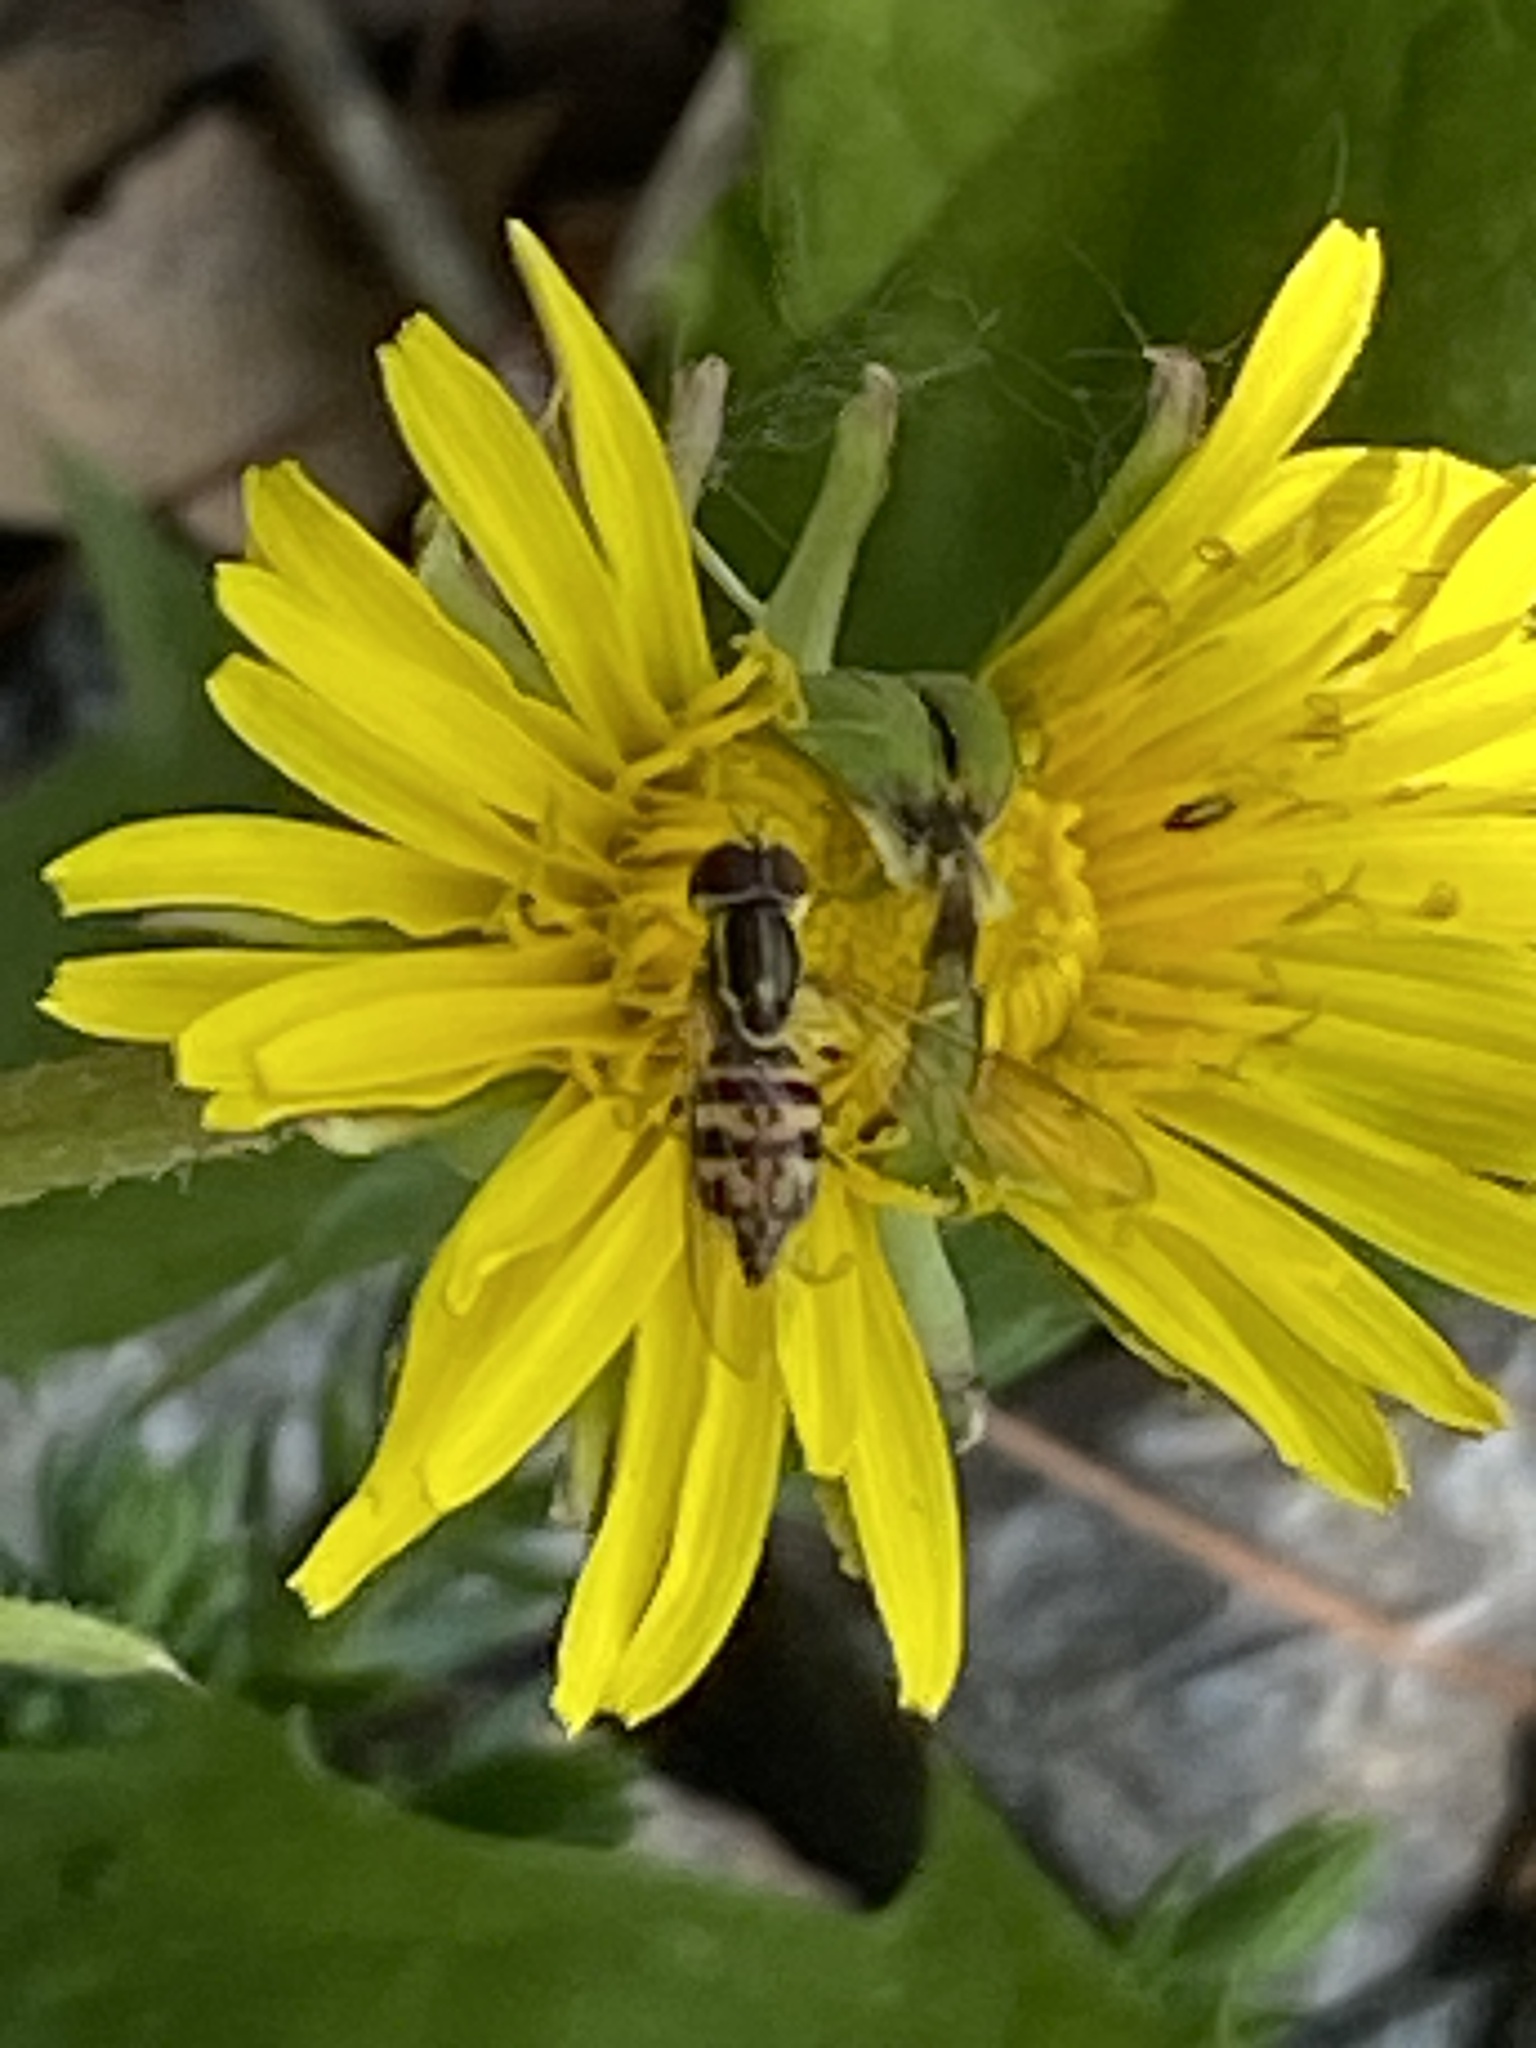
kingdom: Animalia
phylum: Arthropoda
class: Insecta
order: Diptera
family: Syrphidae
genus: Toxomerus
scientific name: Toxomerus geminatus
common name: Eastern calligrapher
